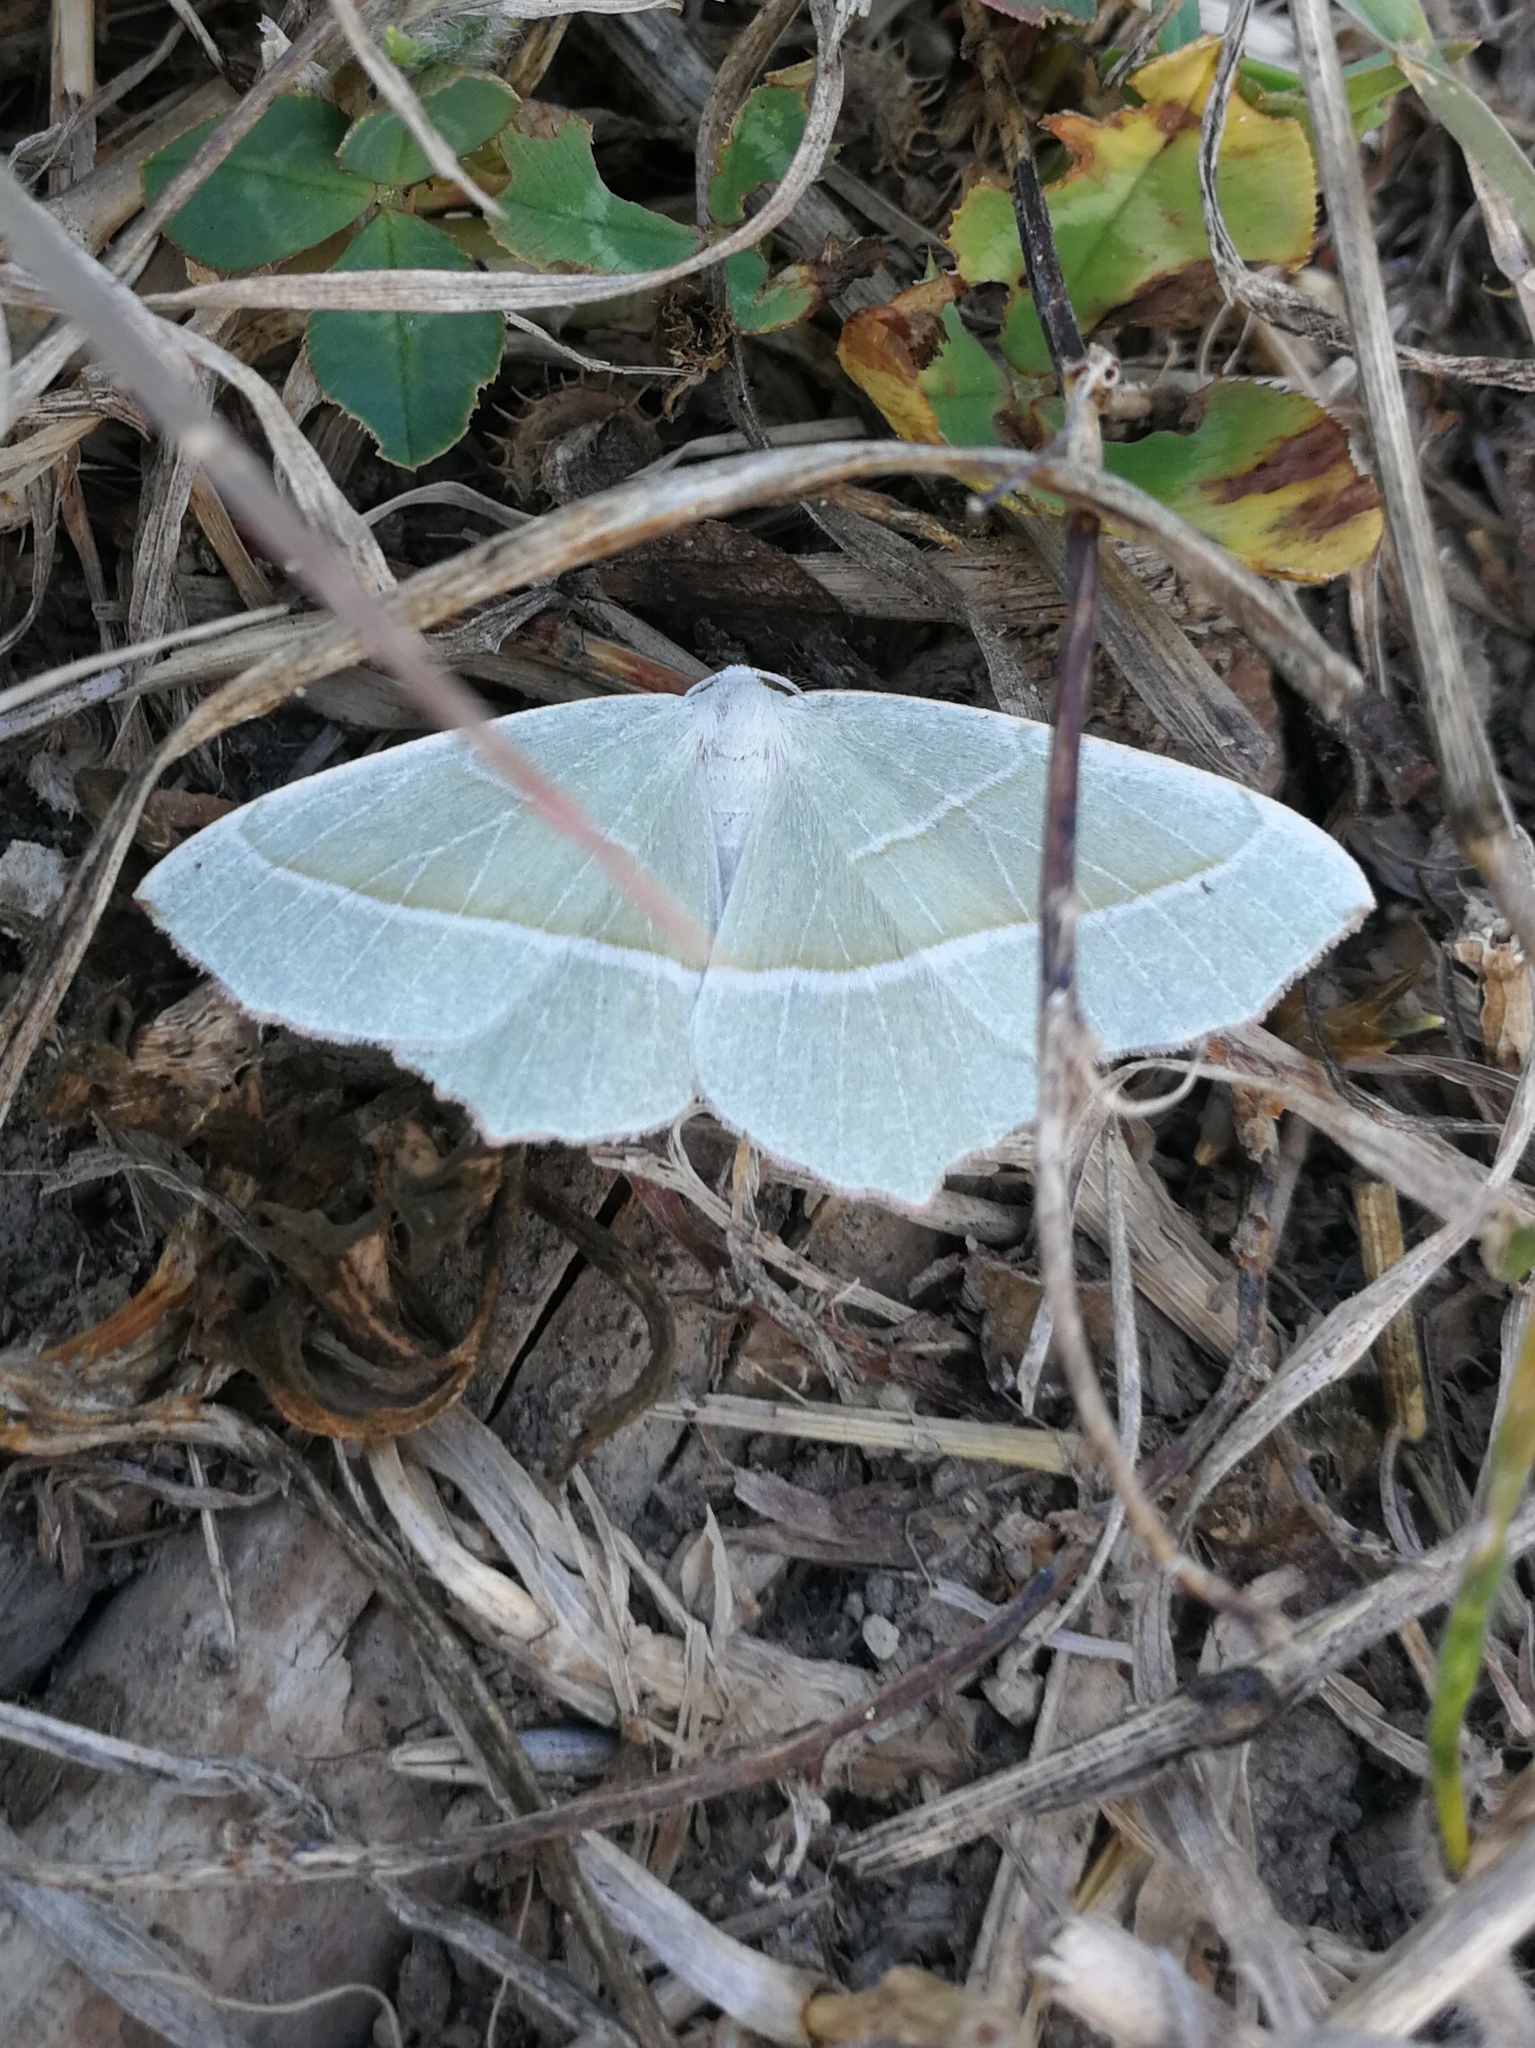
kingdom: Animalia
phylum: Arthropoda
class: Insecta
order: Lepidoptera
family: Geometridae
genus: Campaea
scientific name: Campaea margaritaria
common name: Light emerald
